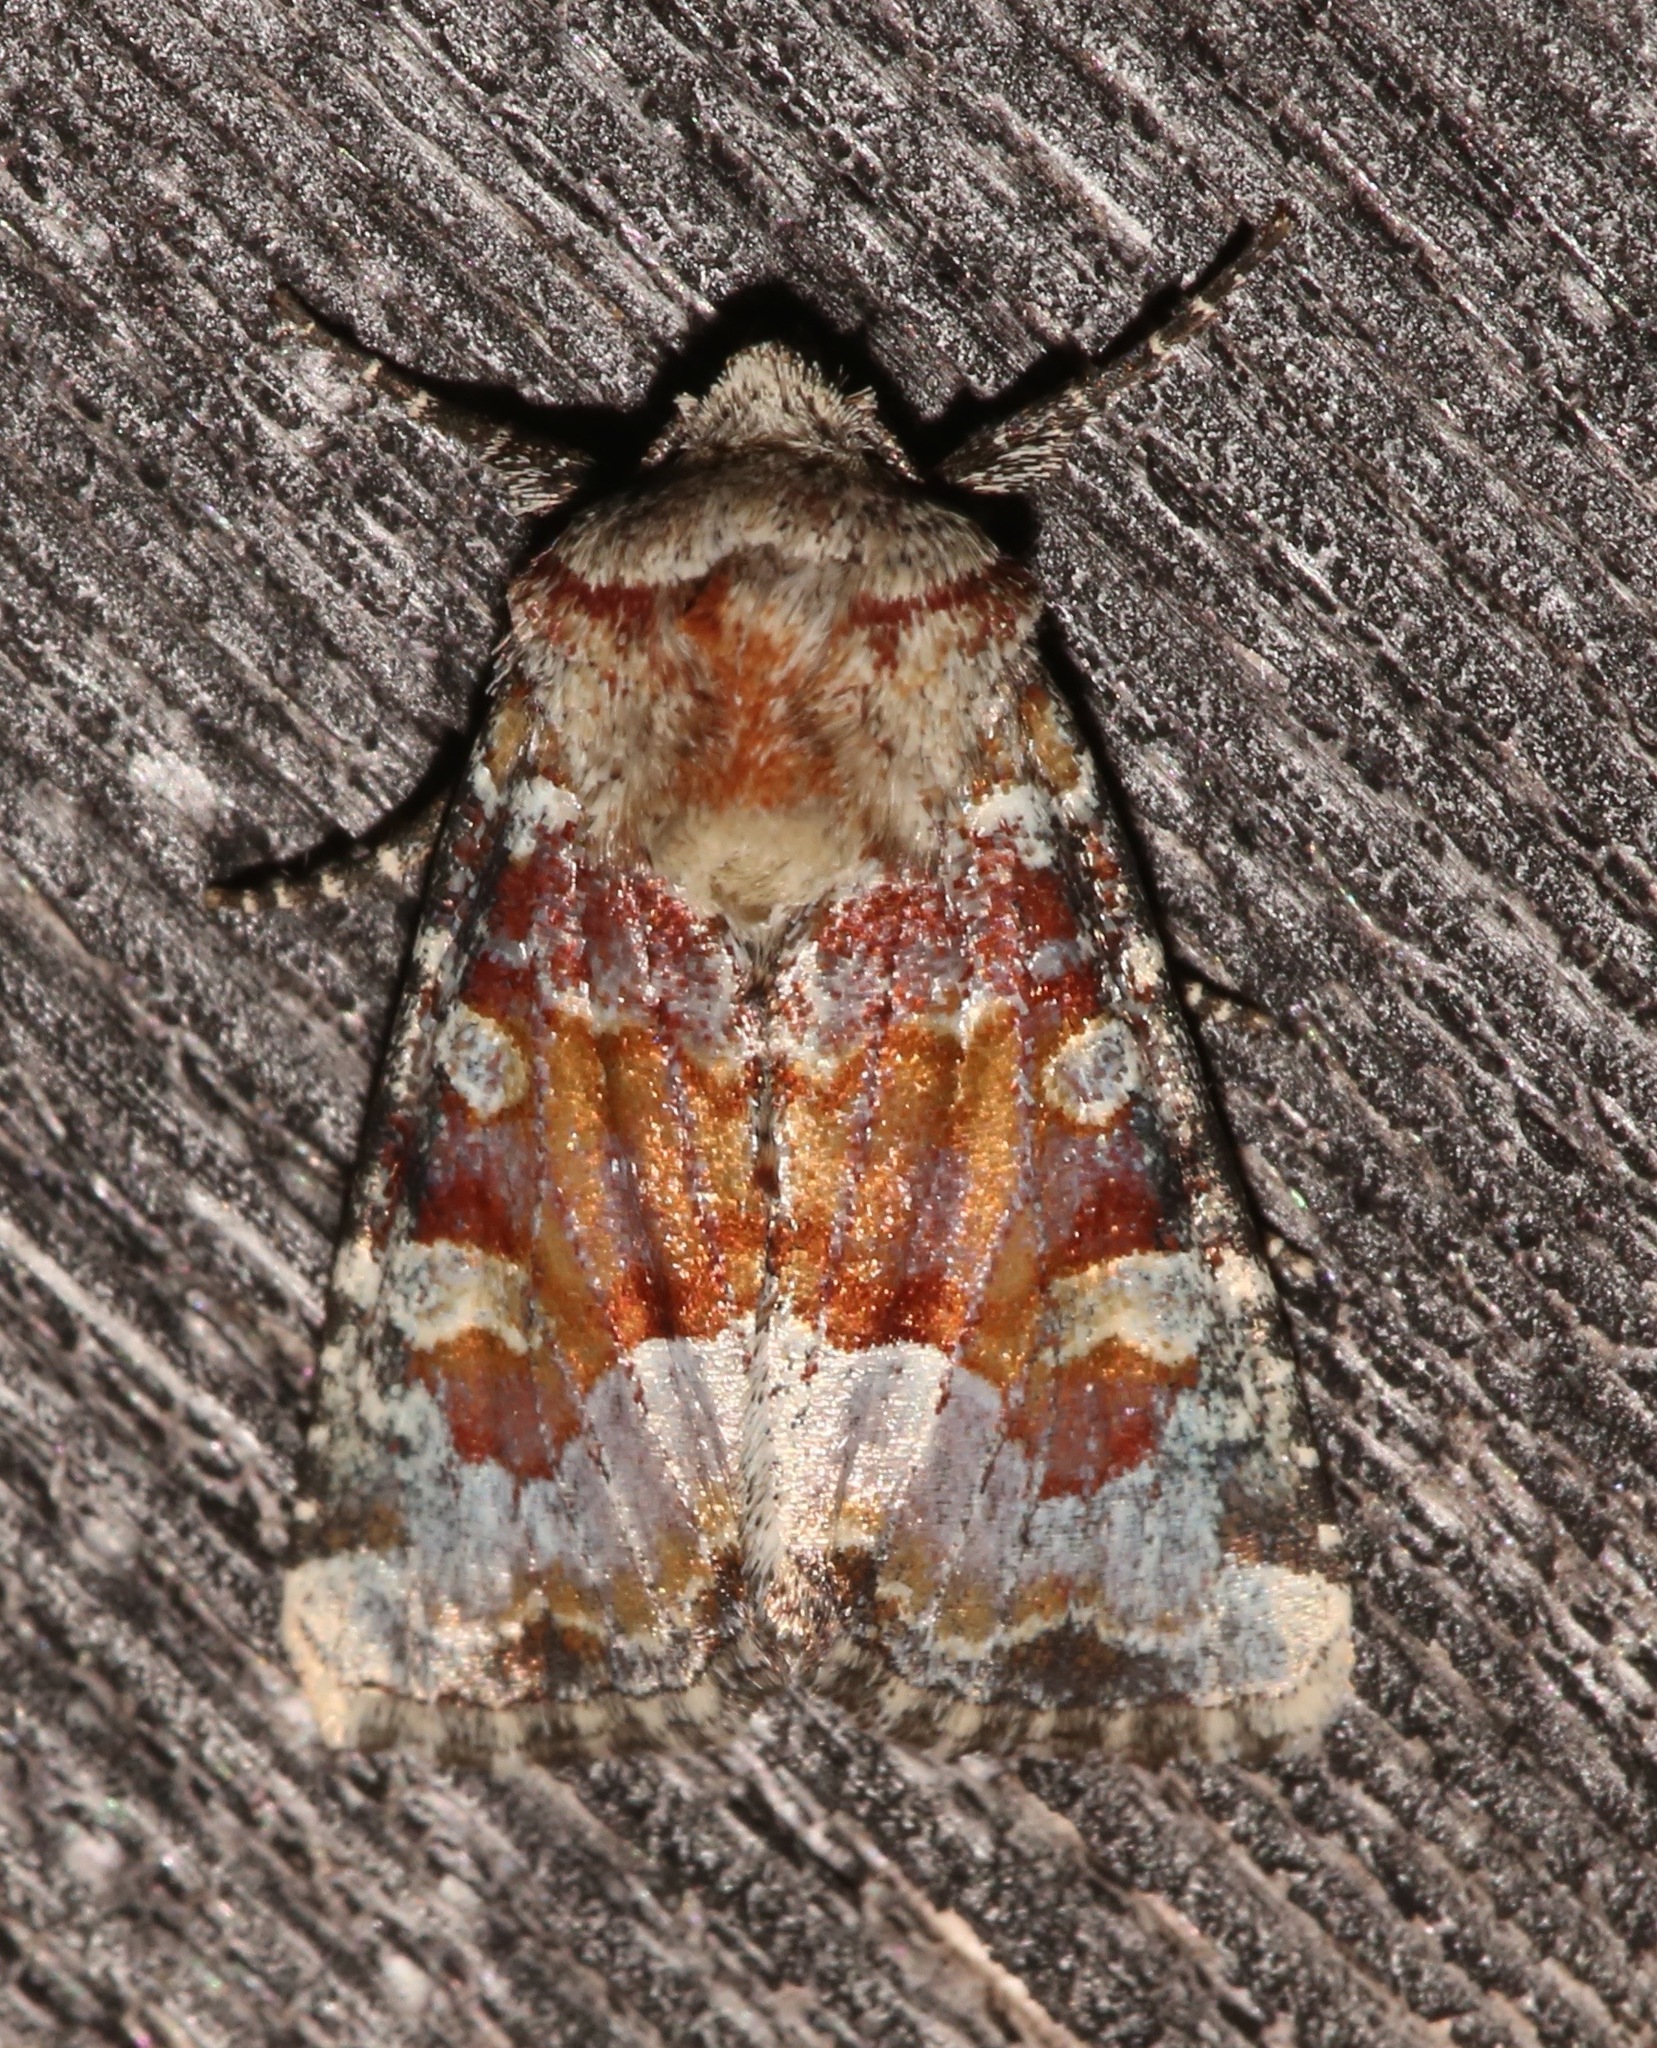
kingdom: Animalia
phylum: Arthropoda
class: Insecta
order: Lepidoptera
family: Noctuidae
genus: Oligia
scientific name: Oligia bridghamii
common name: Bridgham's brocade moth
